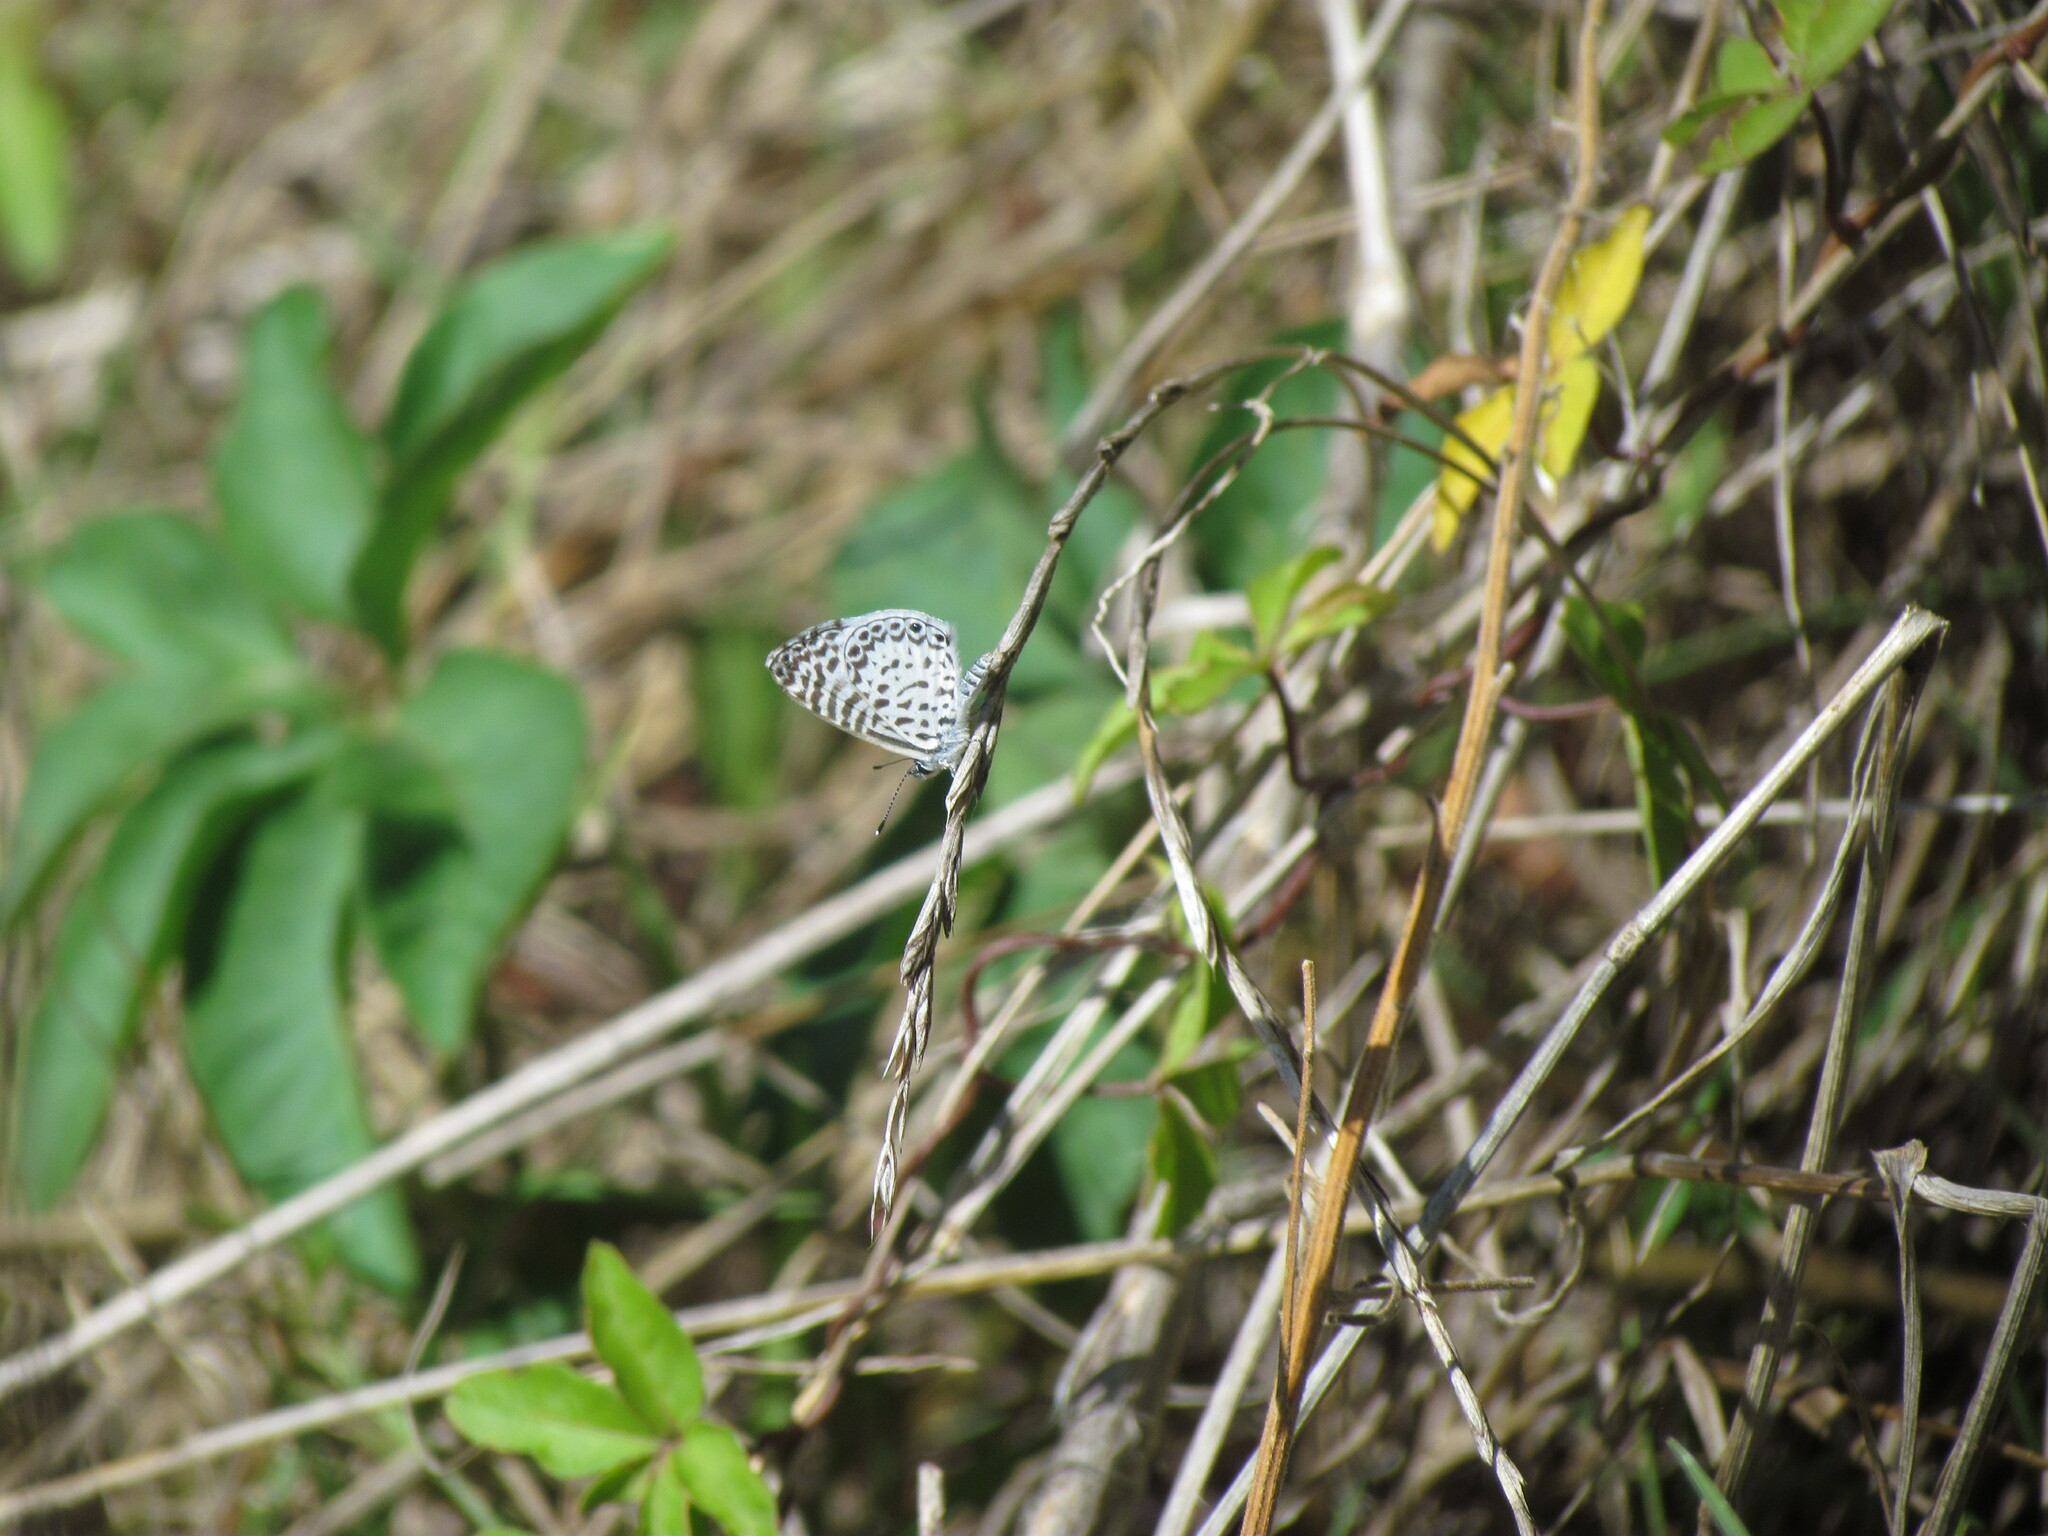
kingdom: Animalia
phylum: Arthropoda
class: Insecta
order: Lepidoptera
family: Lycaenidae
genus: Leptotes
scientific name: Leptotes cassius
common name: Cassius blue
